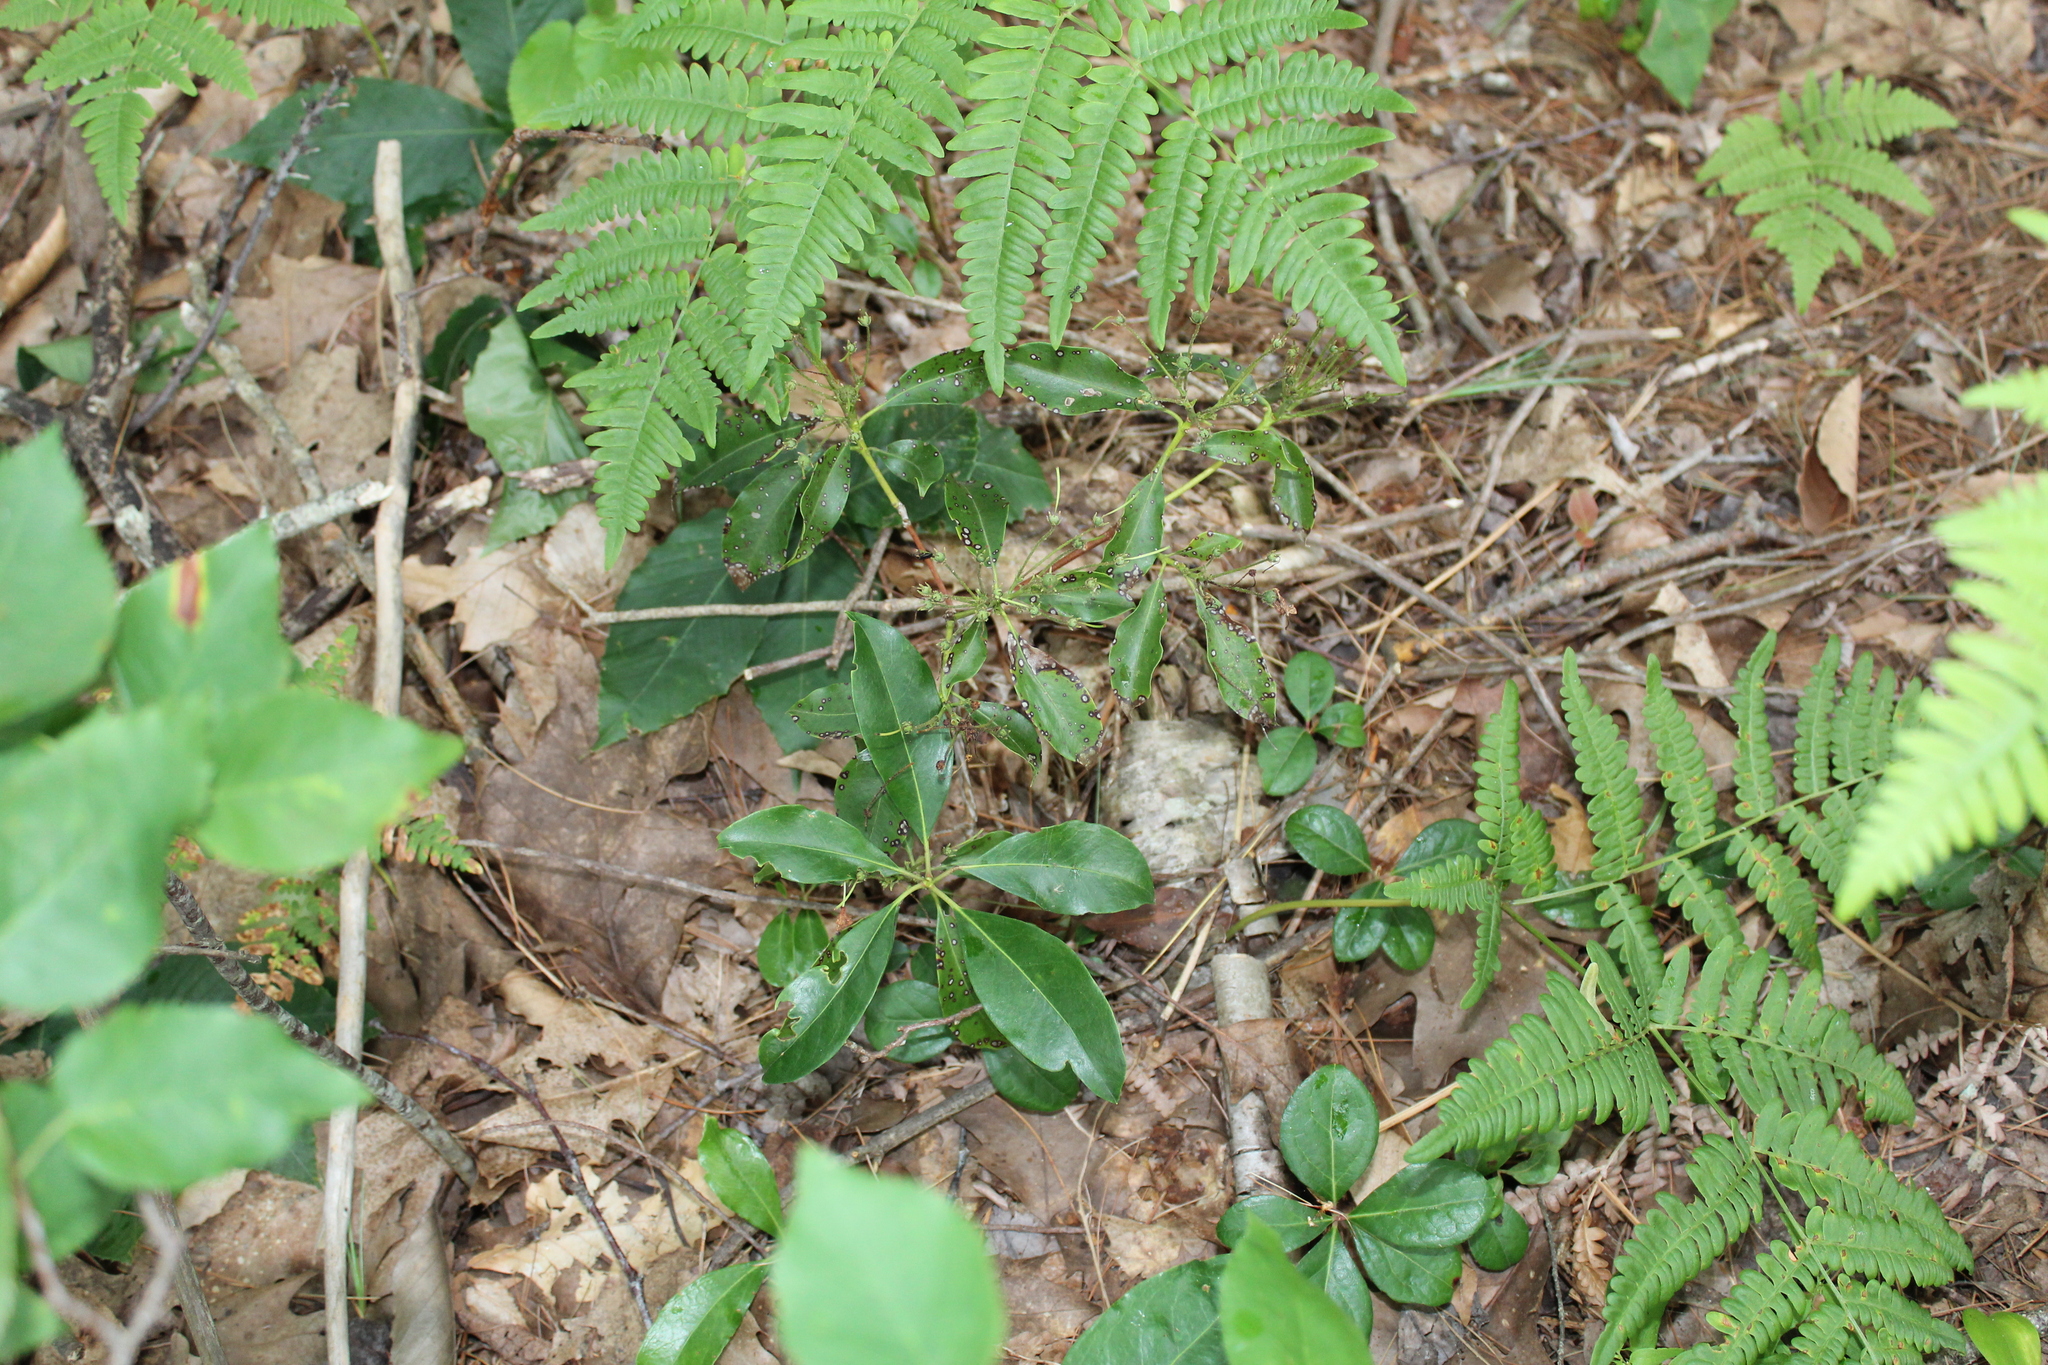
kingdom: Plantae
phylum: Tracheophyta
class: Magnoliopsida
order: Ericales
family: Ericaceae
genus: Kalmia
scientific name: Kalmia latifolia
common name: Mountain-laurel
